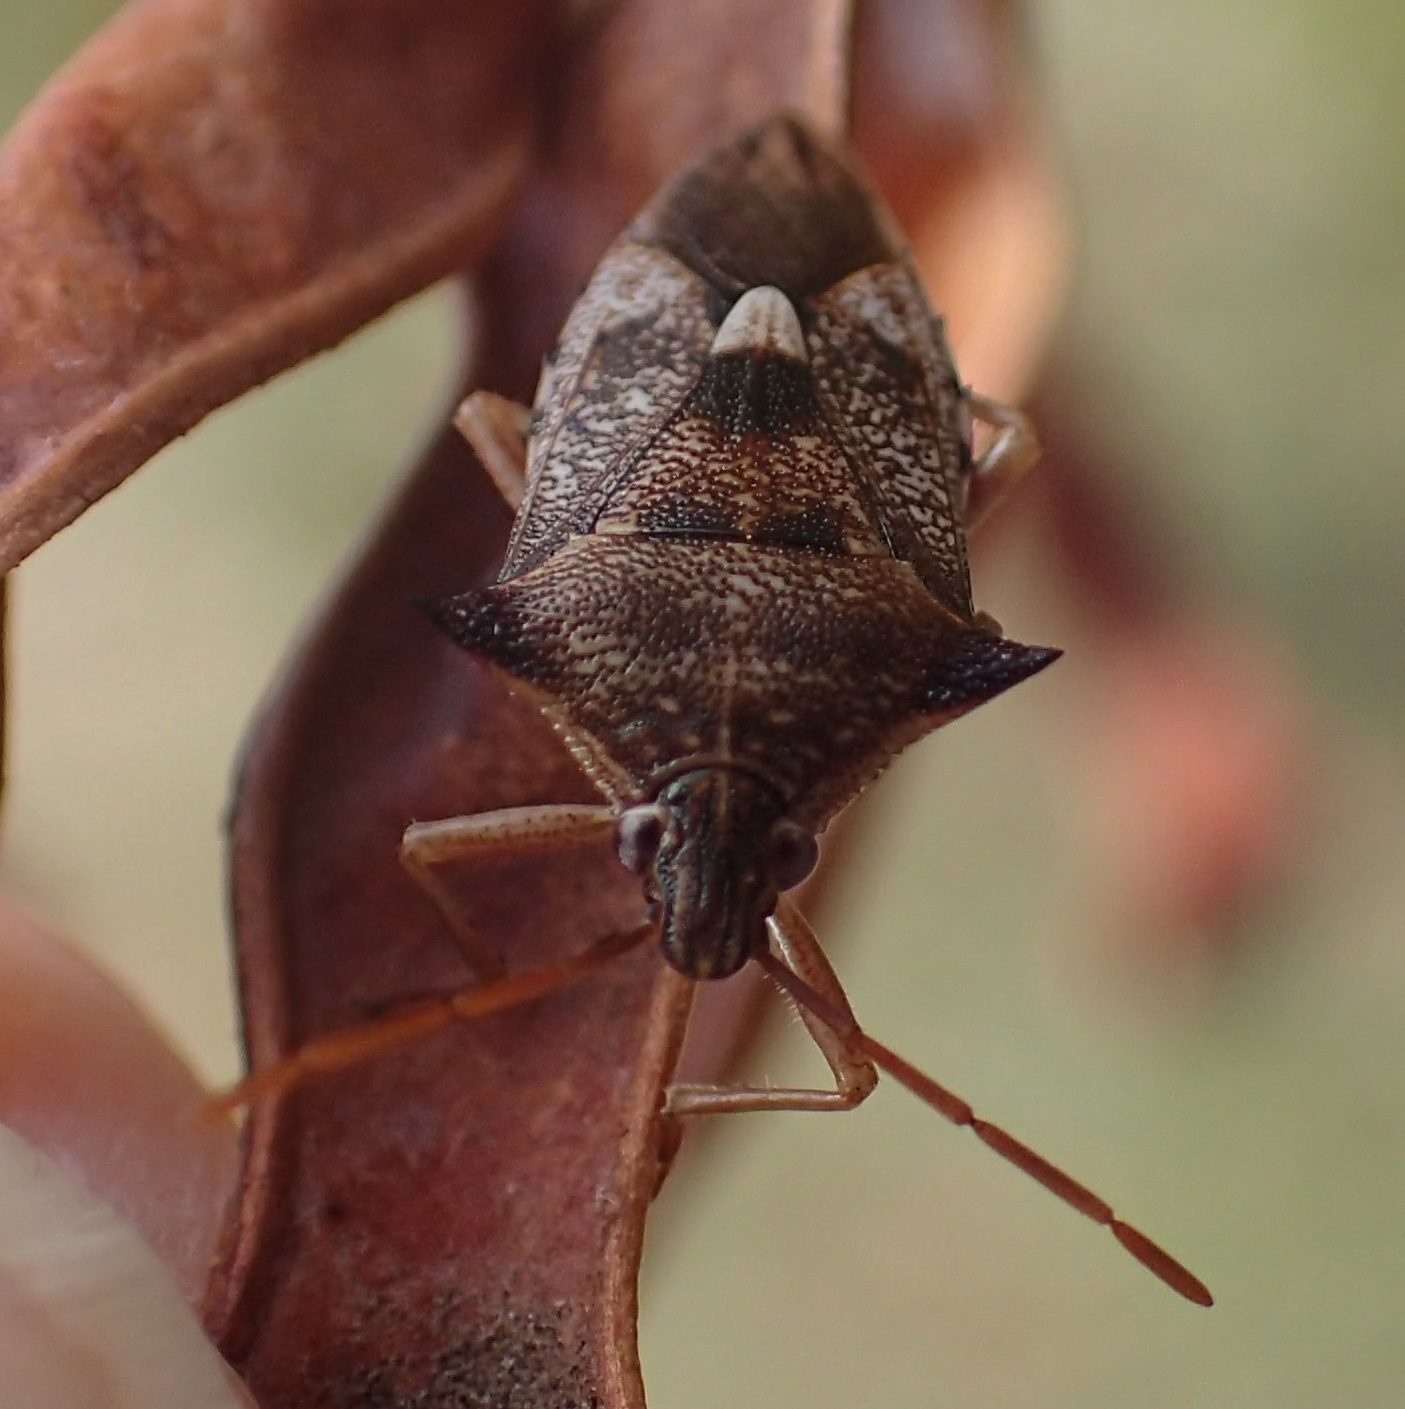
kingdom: Animalia
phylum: Arthropoda
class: Insecta
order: Hemiptera
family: Pentatomidae
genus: Oechalia
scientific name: Oechalia schellenbergii
